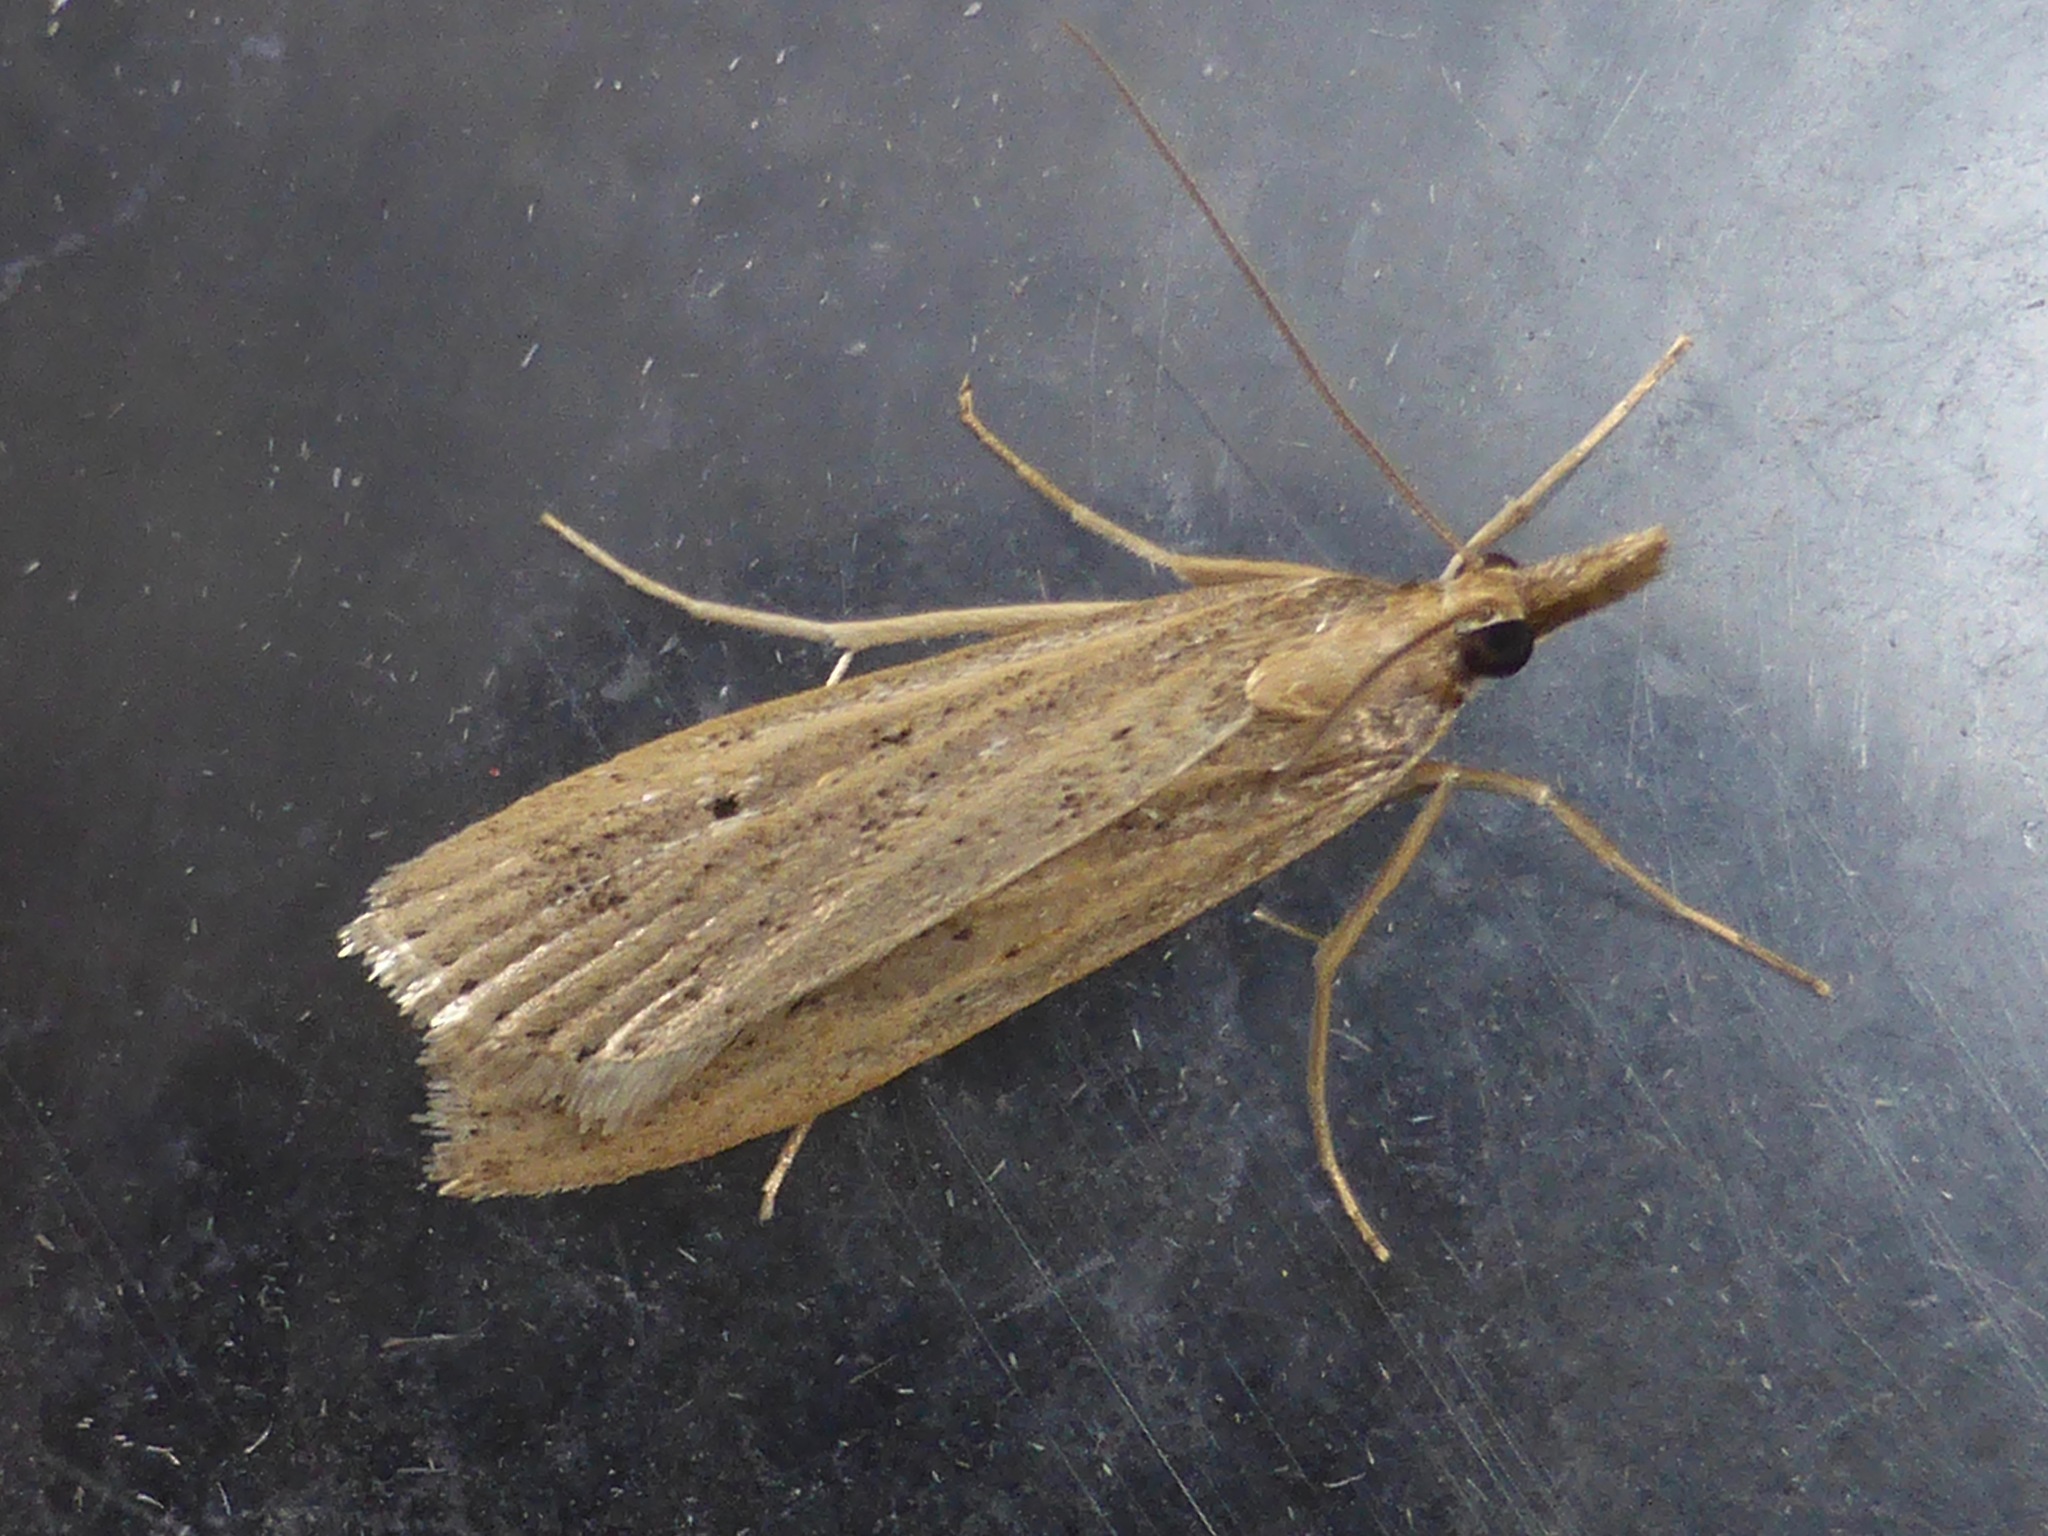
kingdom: Animalia
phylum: Arthropoda
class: Insecta
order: Lepidoptera
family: Crambidae
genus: Eudonia
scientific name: Eudonia sabulosella
